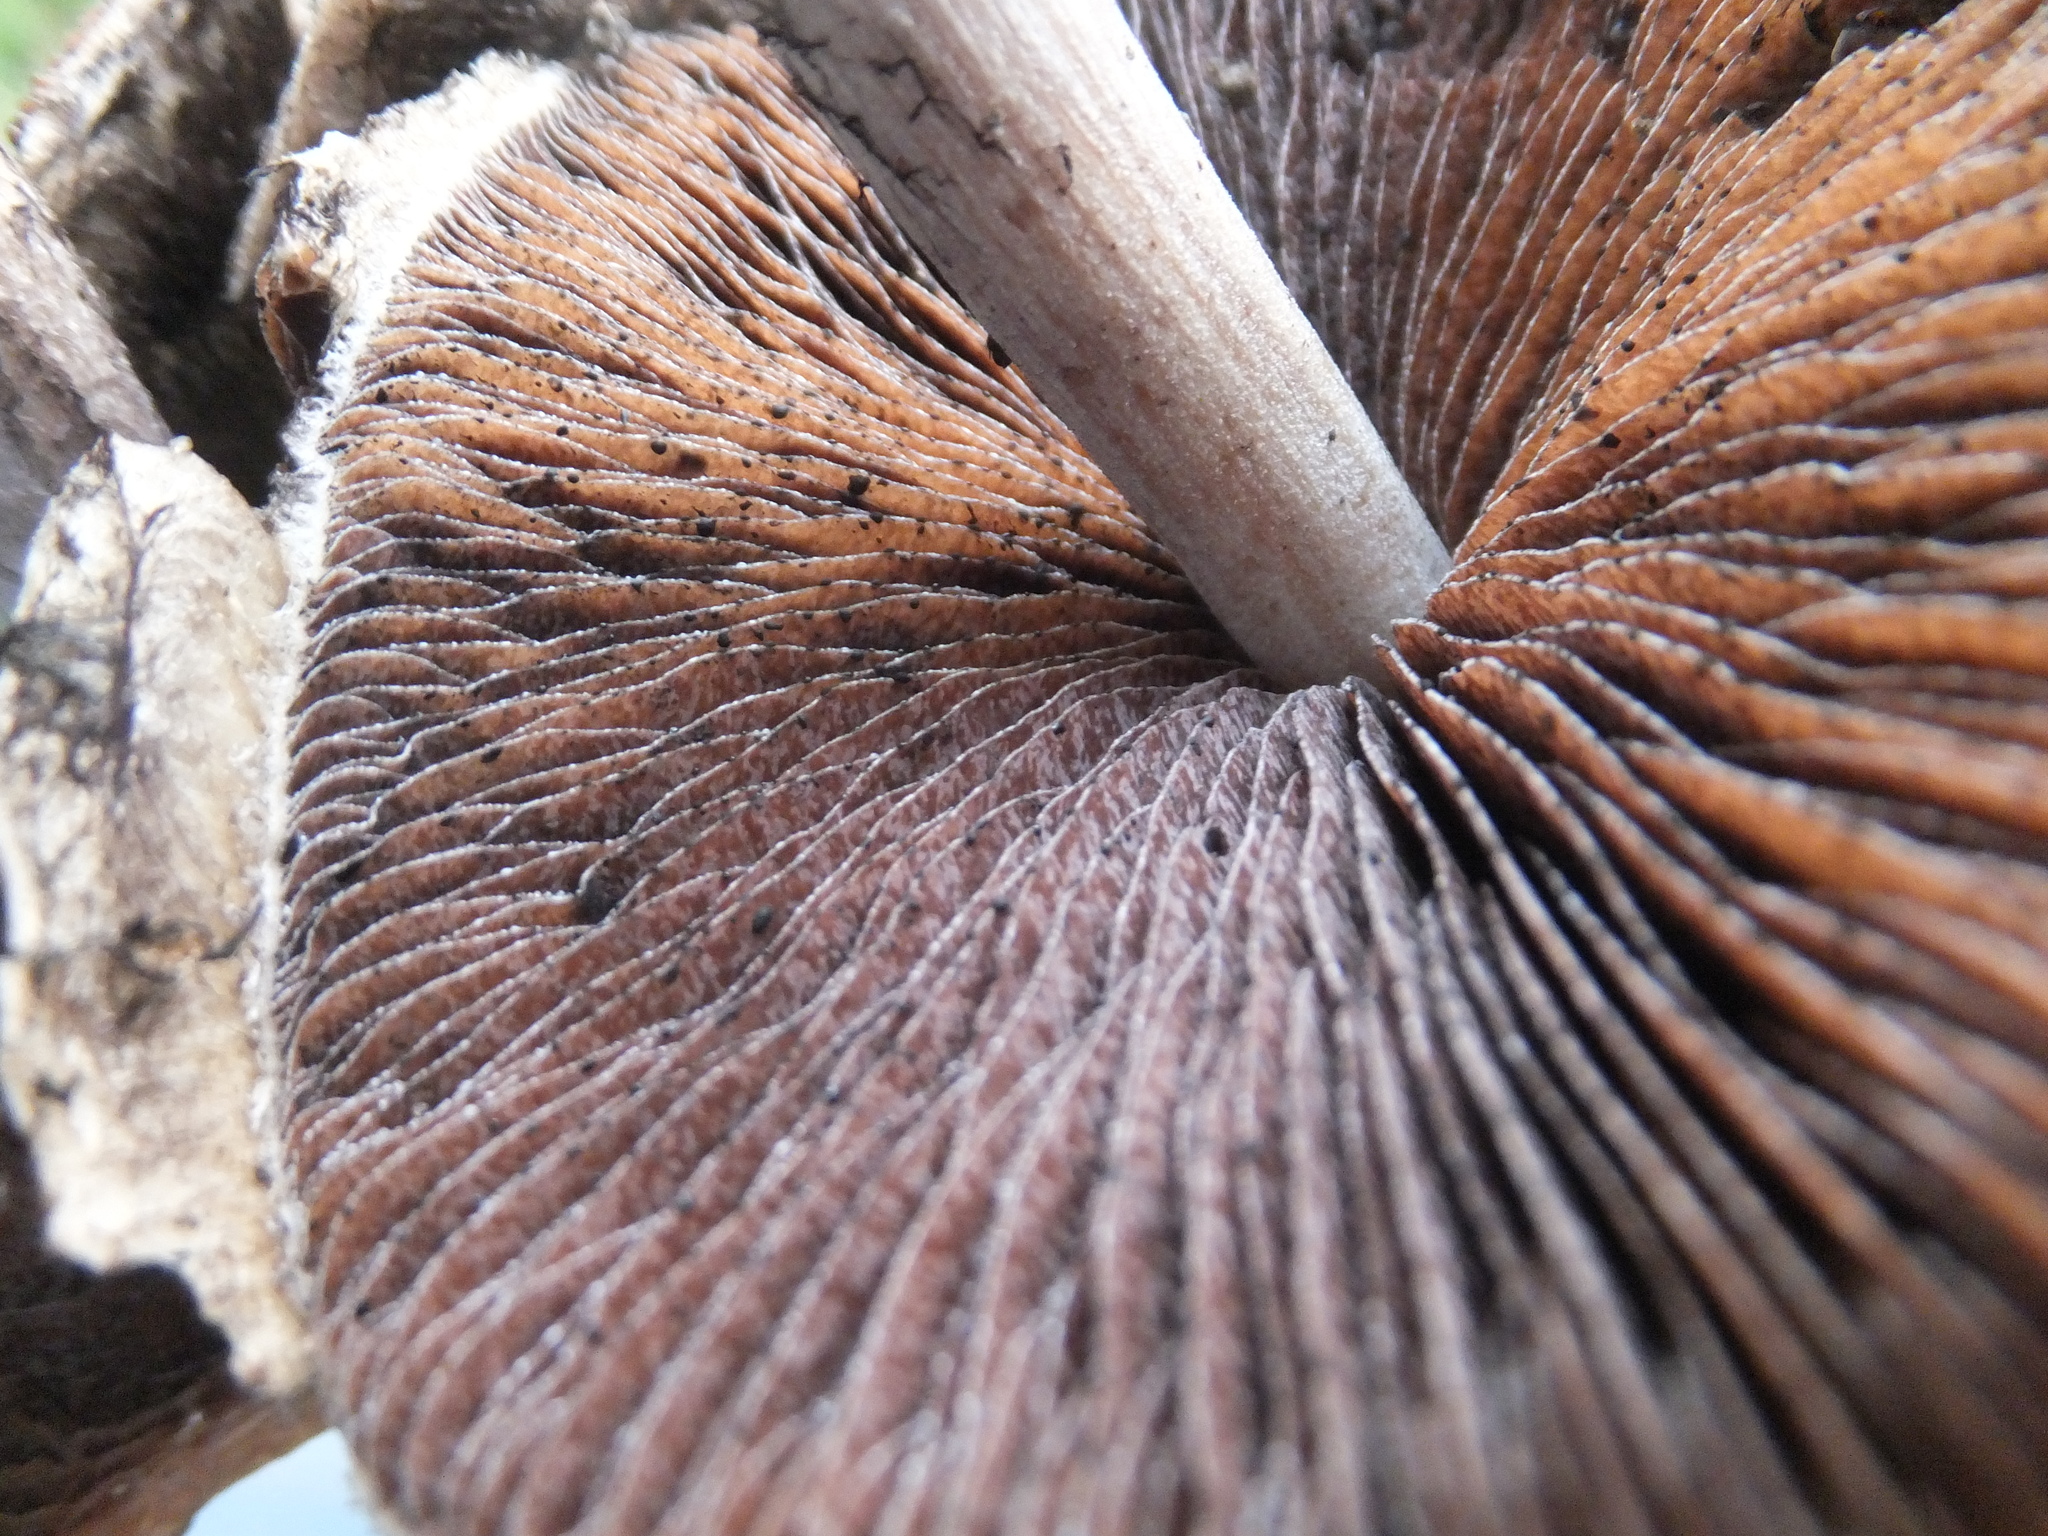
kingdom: Fungi
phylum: Basidiomycota
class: Agaricomycetes
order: Agaricales
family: Psathyrellaceae
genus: Lacrymaria
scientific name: Lacrymaria lacrymabunda
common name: Weeping widow
